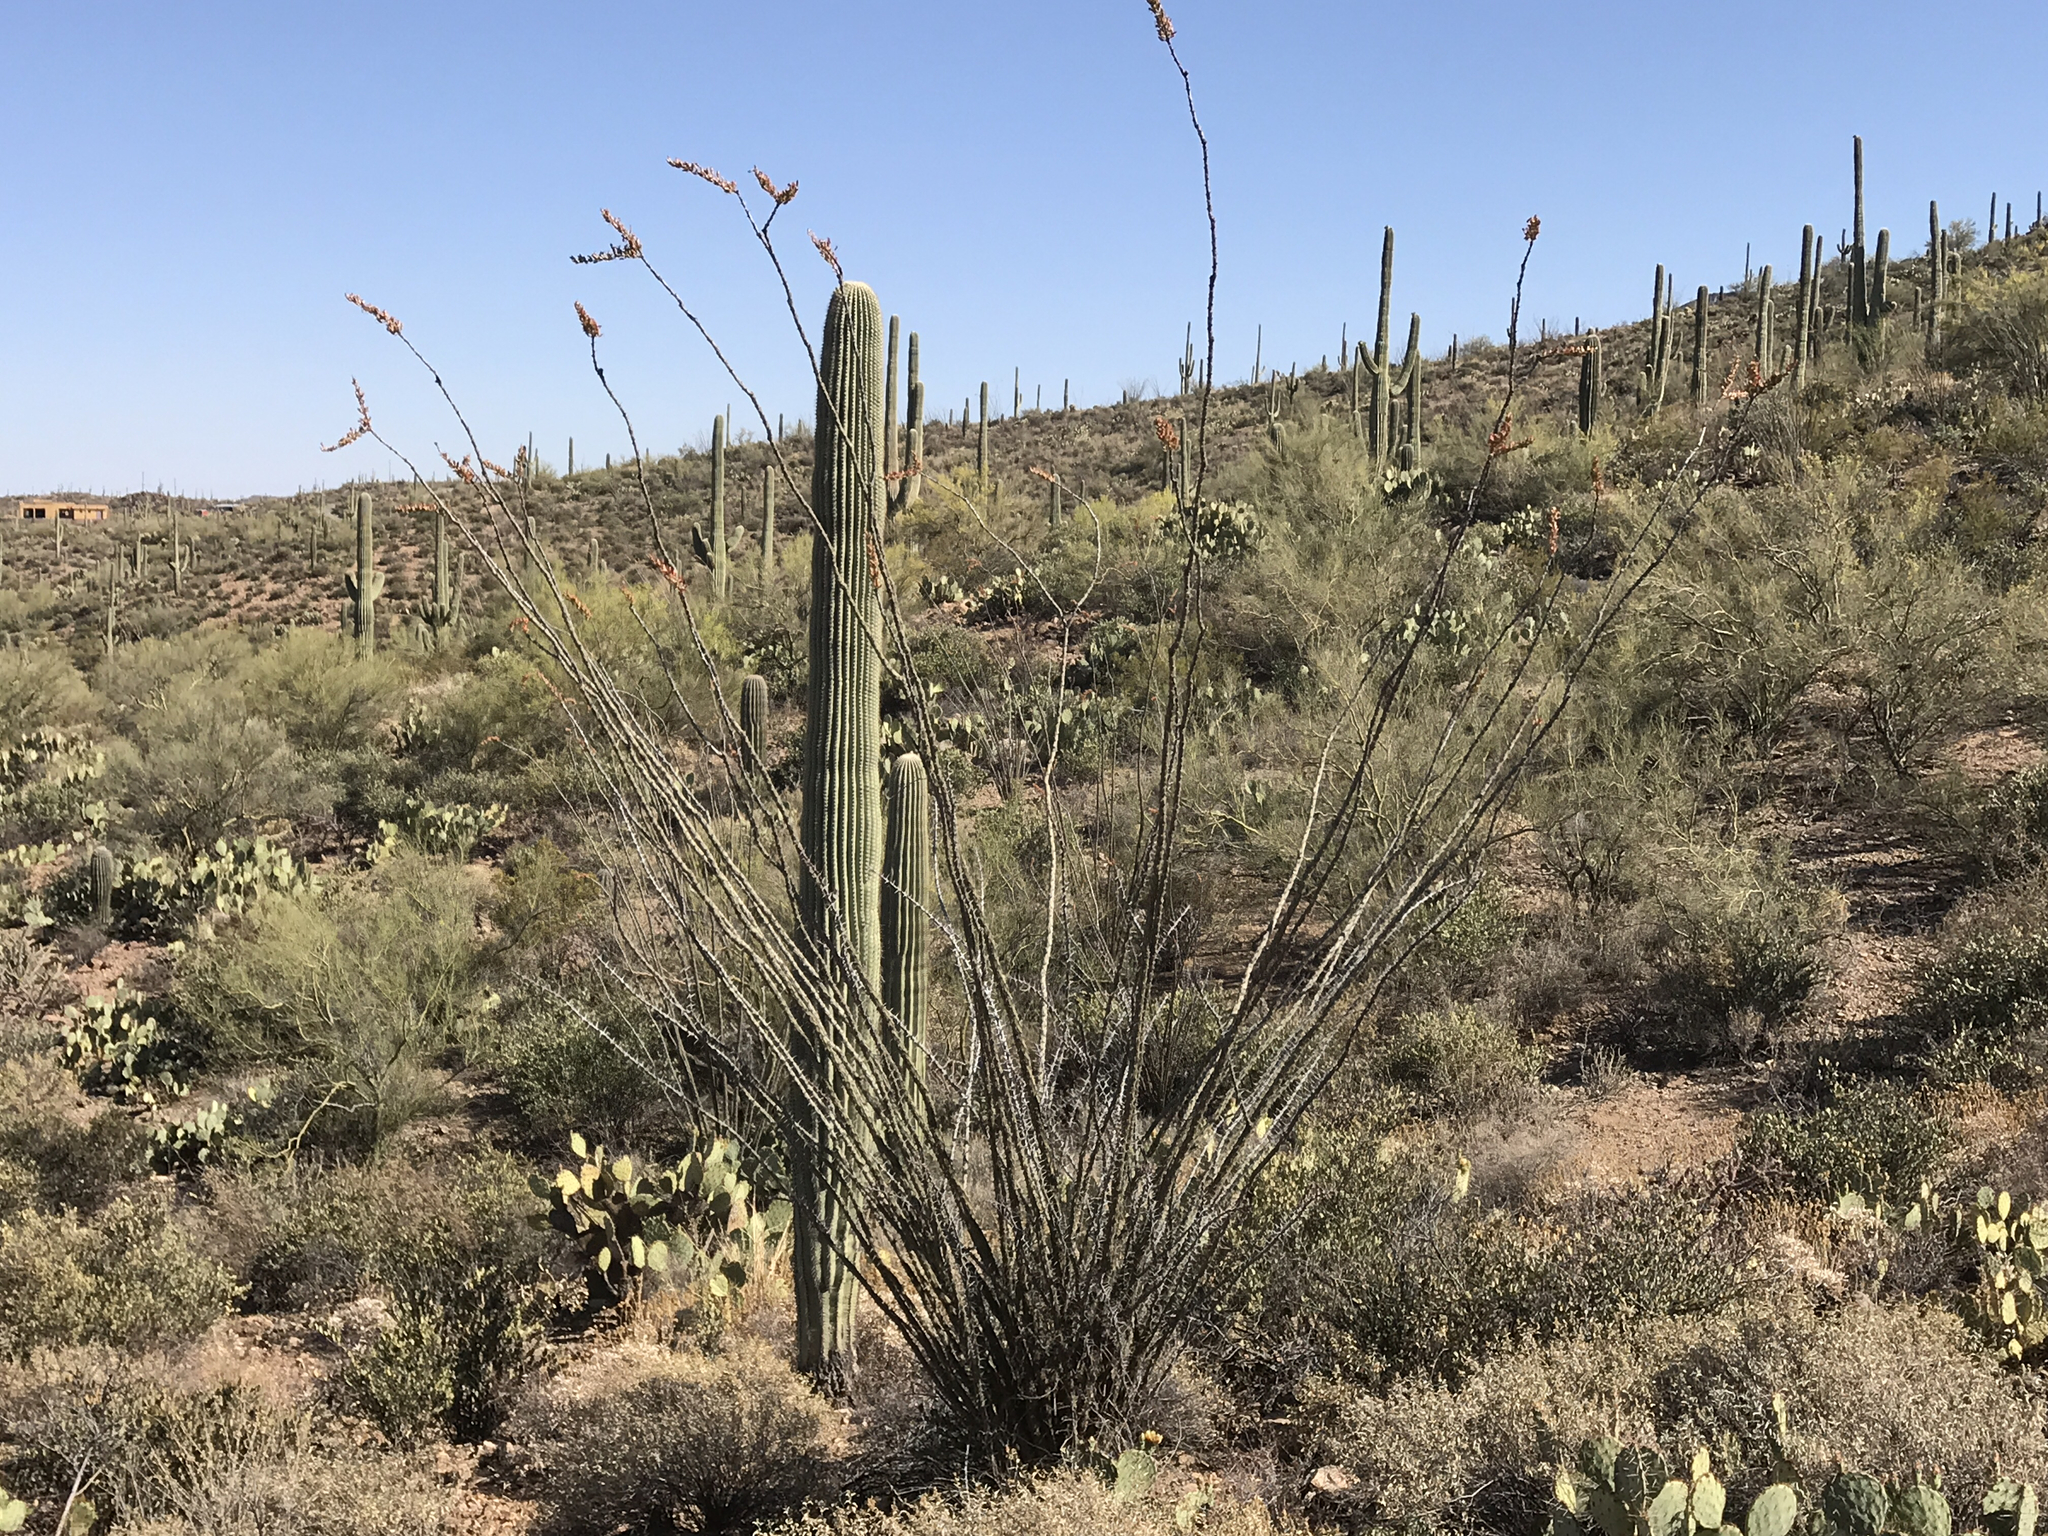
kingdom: Plantae
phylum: Tracheophyta
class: Magnoliopsida
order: Ericales
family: Fouquieriaceae
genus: Fouquieria
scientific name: Fouquieria splendens
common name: Vine-cactus
